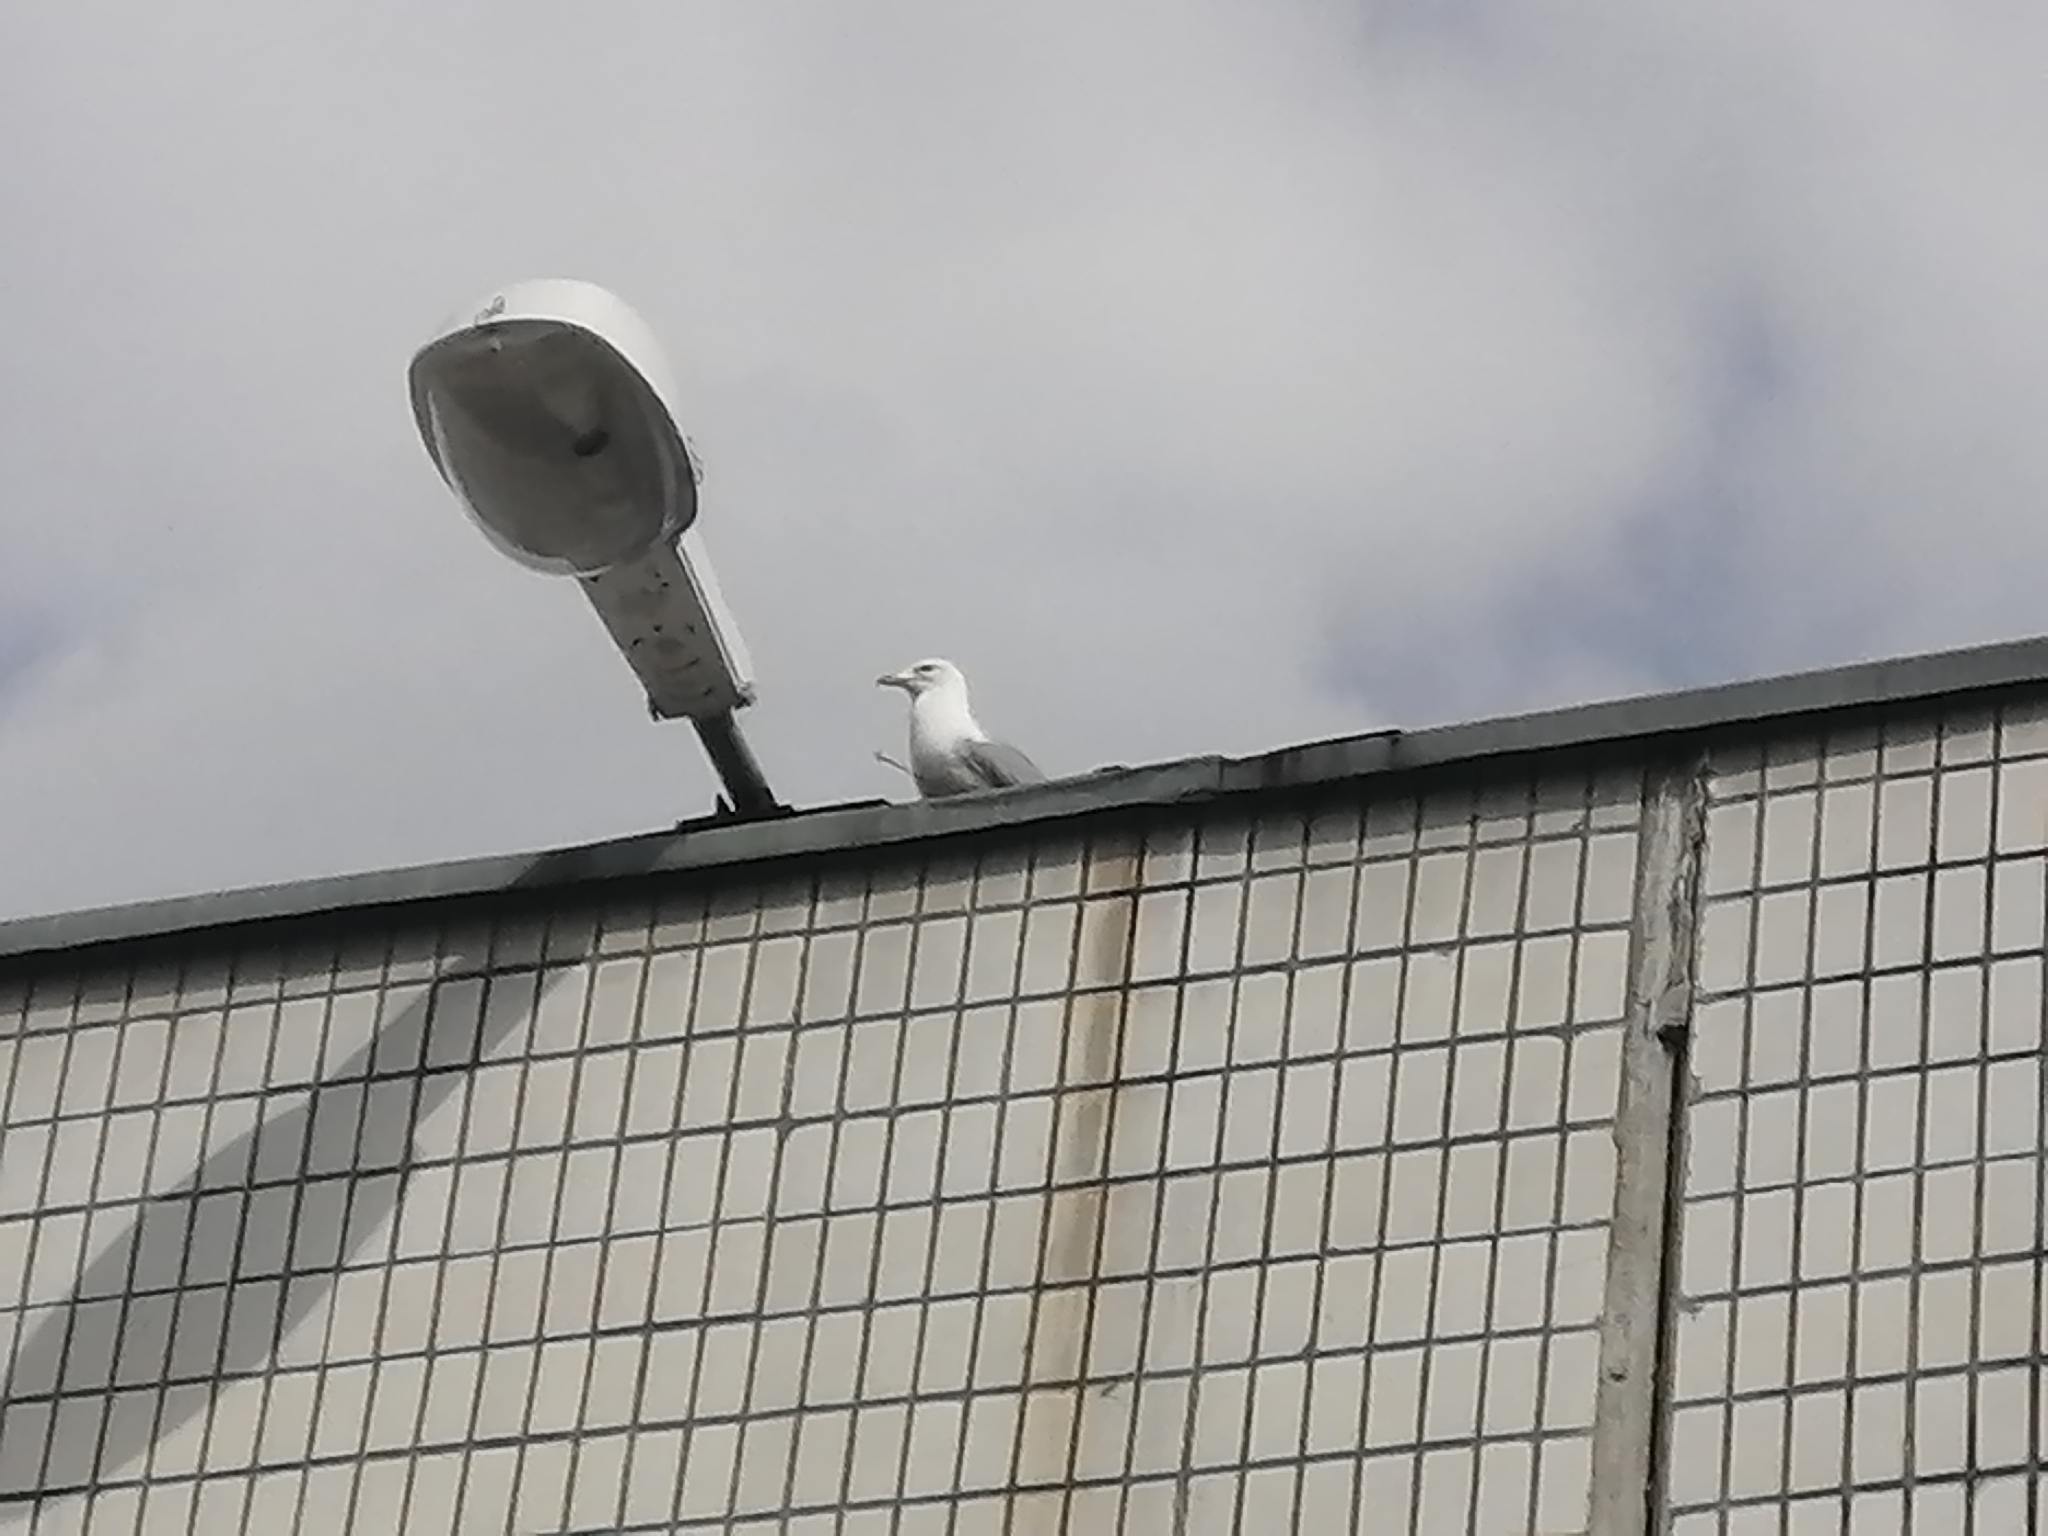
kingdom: Animalia
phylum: Chordata
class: Aves
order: Charadriiformes
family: Laridae
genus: Larus
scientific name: Larus canus
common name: Mew gull
